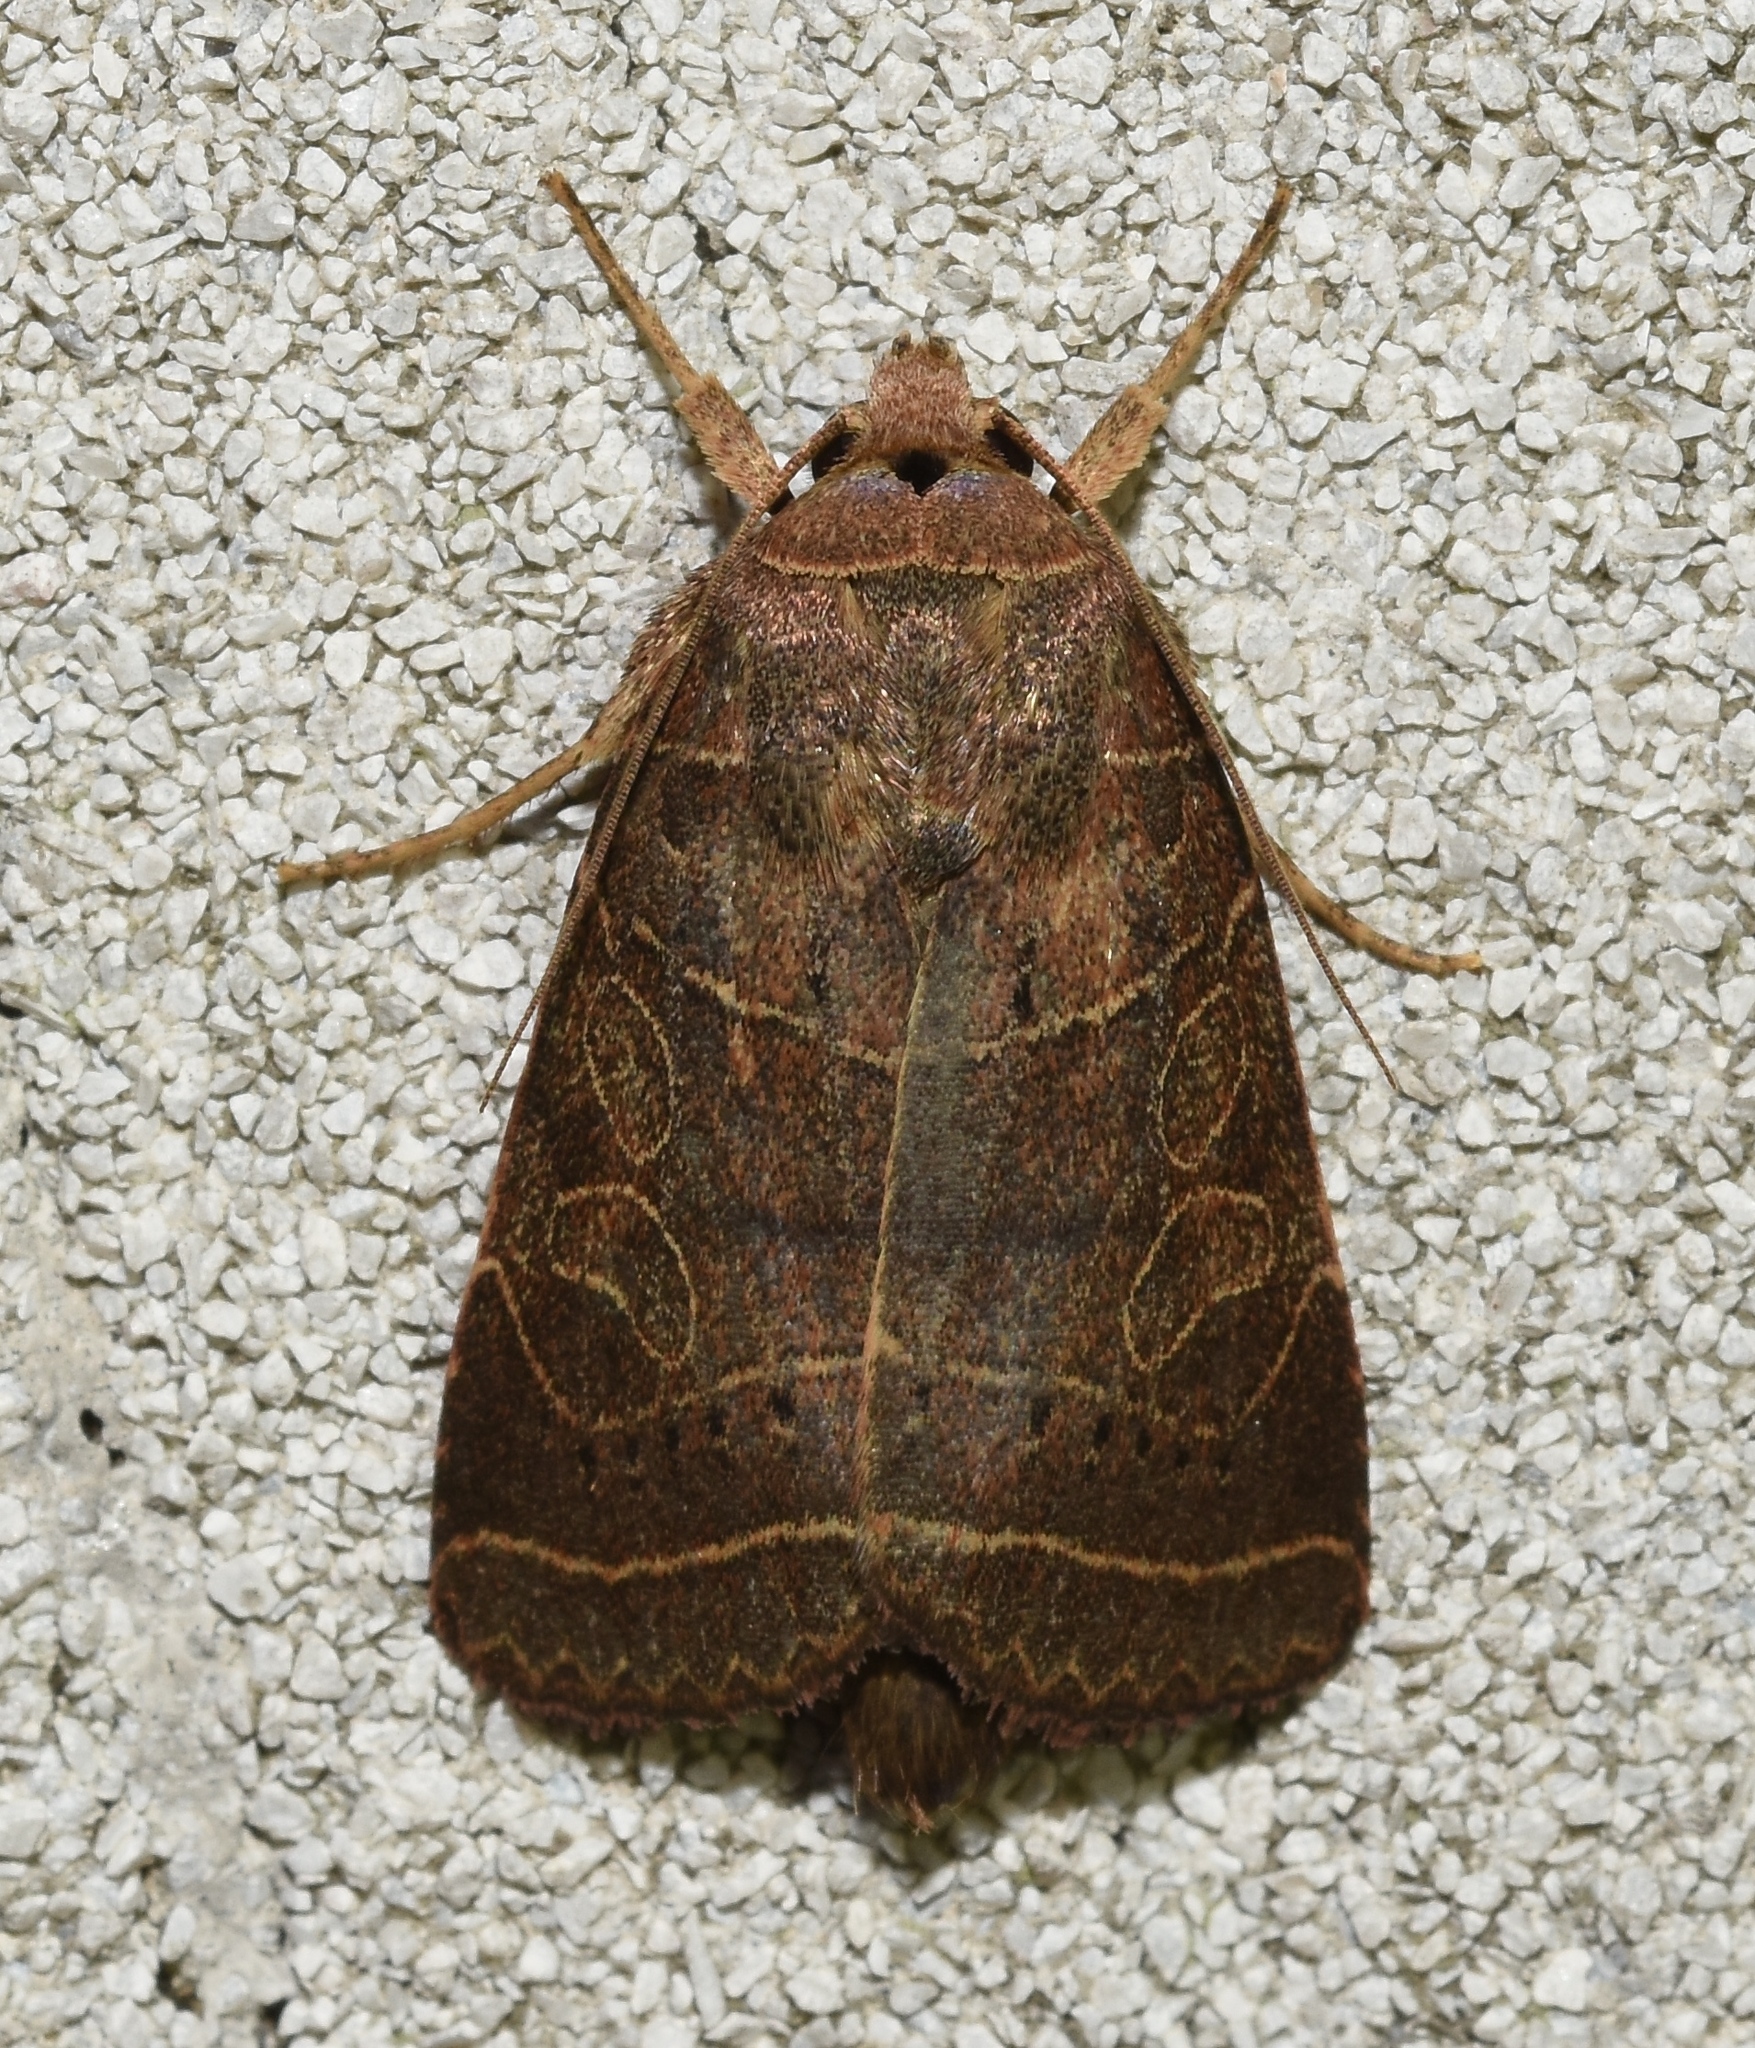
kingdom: Animalia
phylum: Arthropoda
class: Insecta
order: Lepidoptera
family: Noctuidae
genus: Orthodes
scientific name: Orthodes majuscula
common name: Rustic quaker
